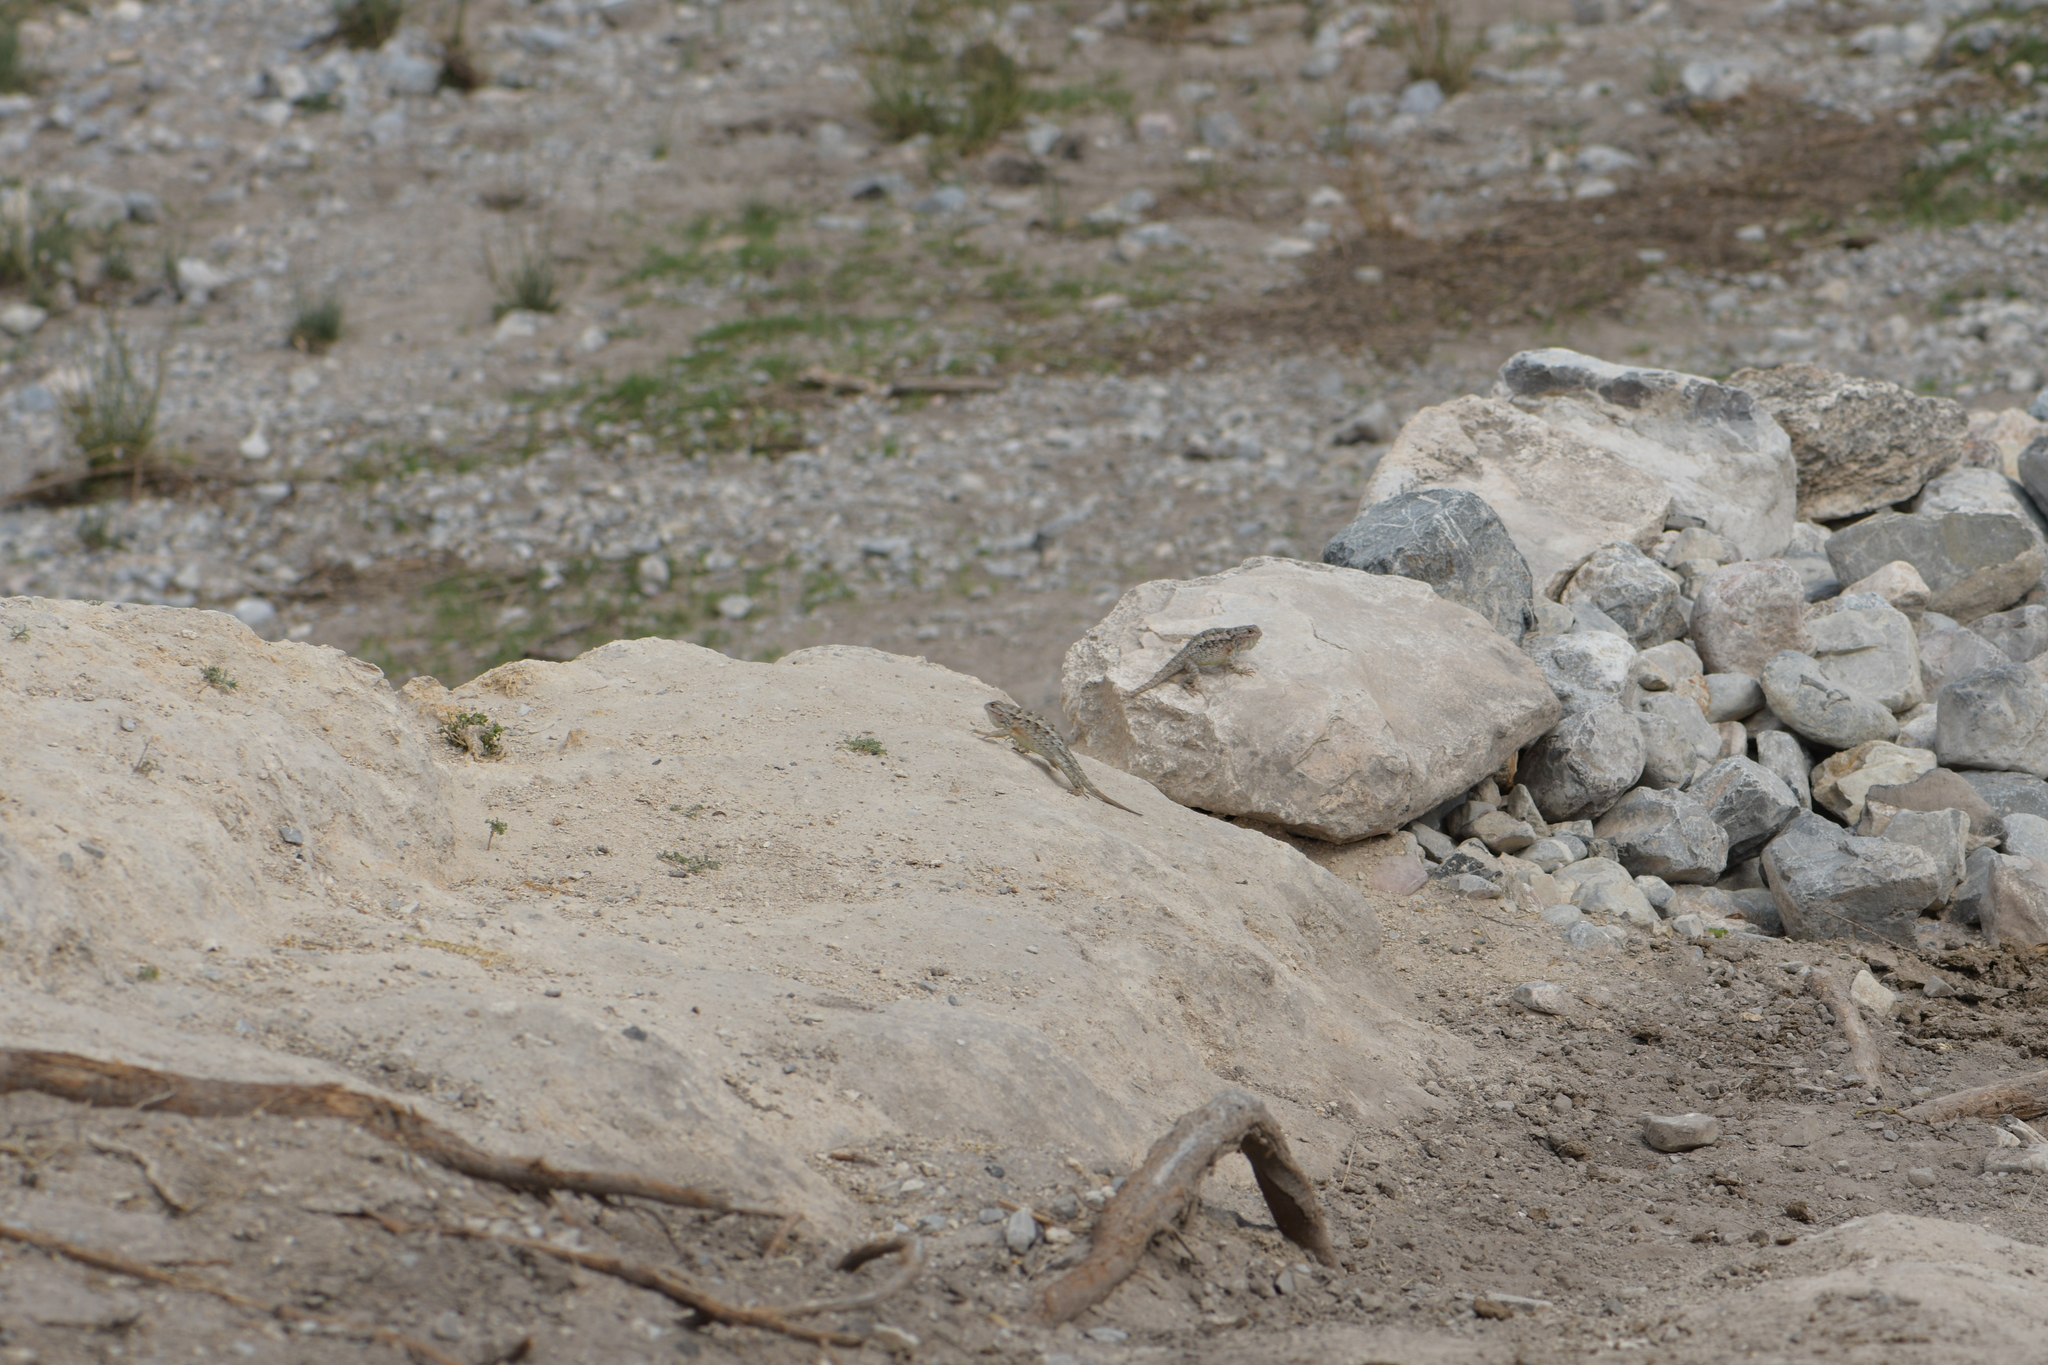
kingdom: Animalia
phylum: Chordata
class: Squamata
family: Phrynosomatidae
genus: Sceloporus
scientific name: Sceloporus spinosus
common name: Blue-spotted spiny lizard [caeruleopunctatus]
